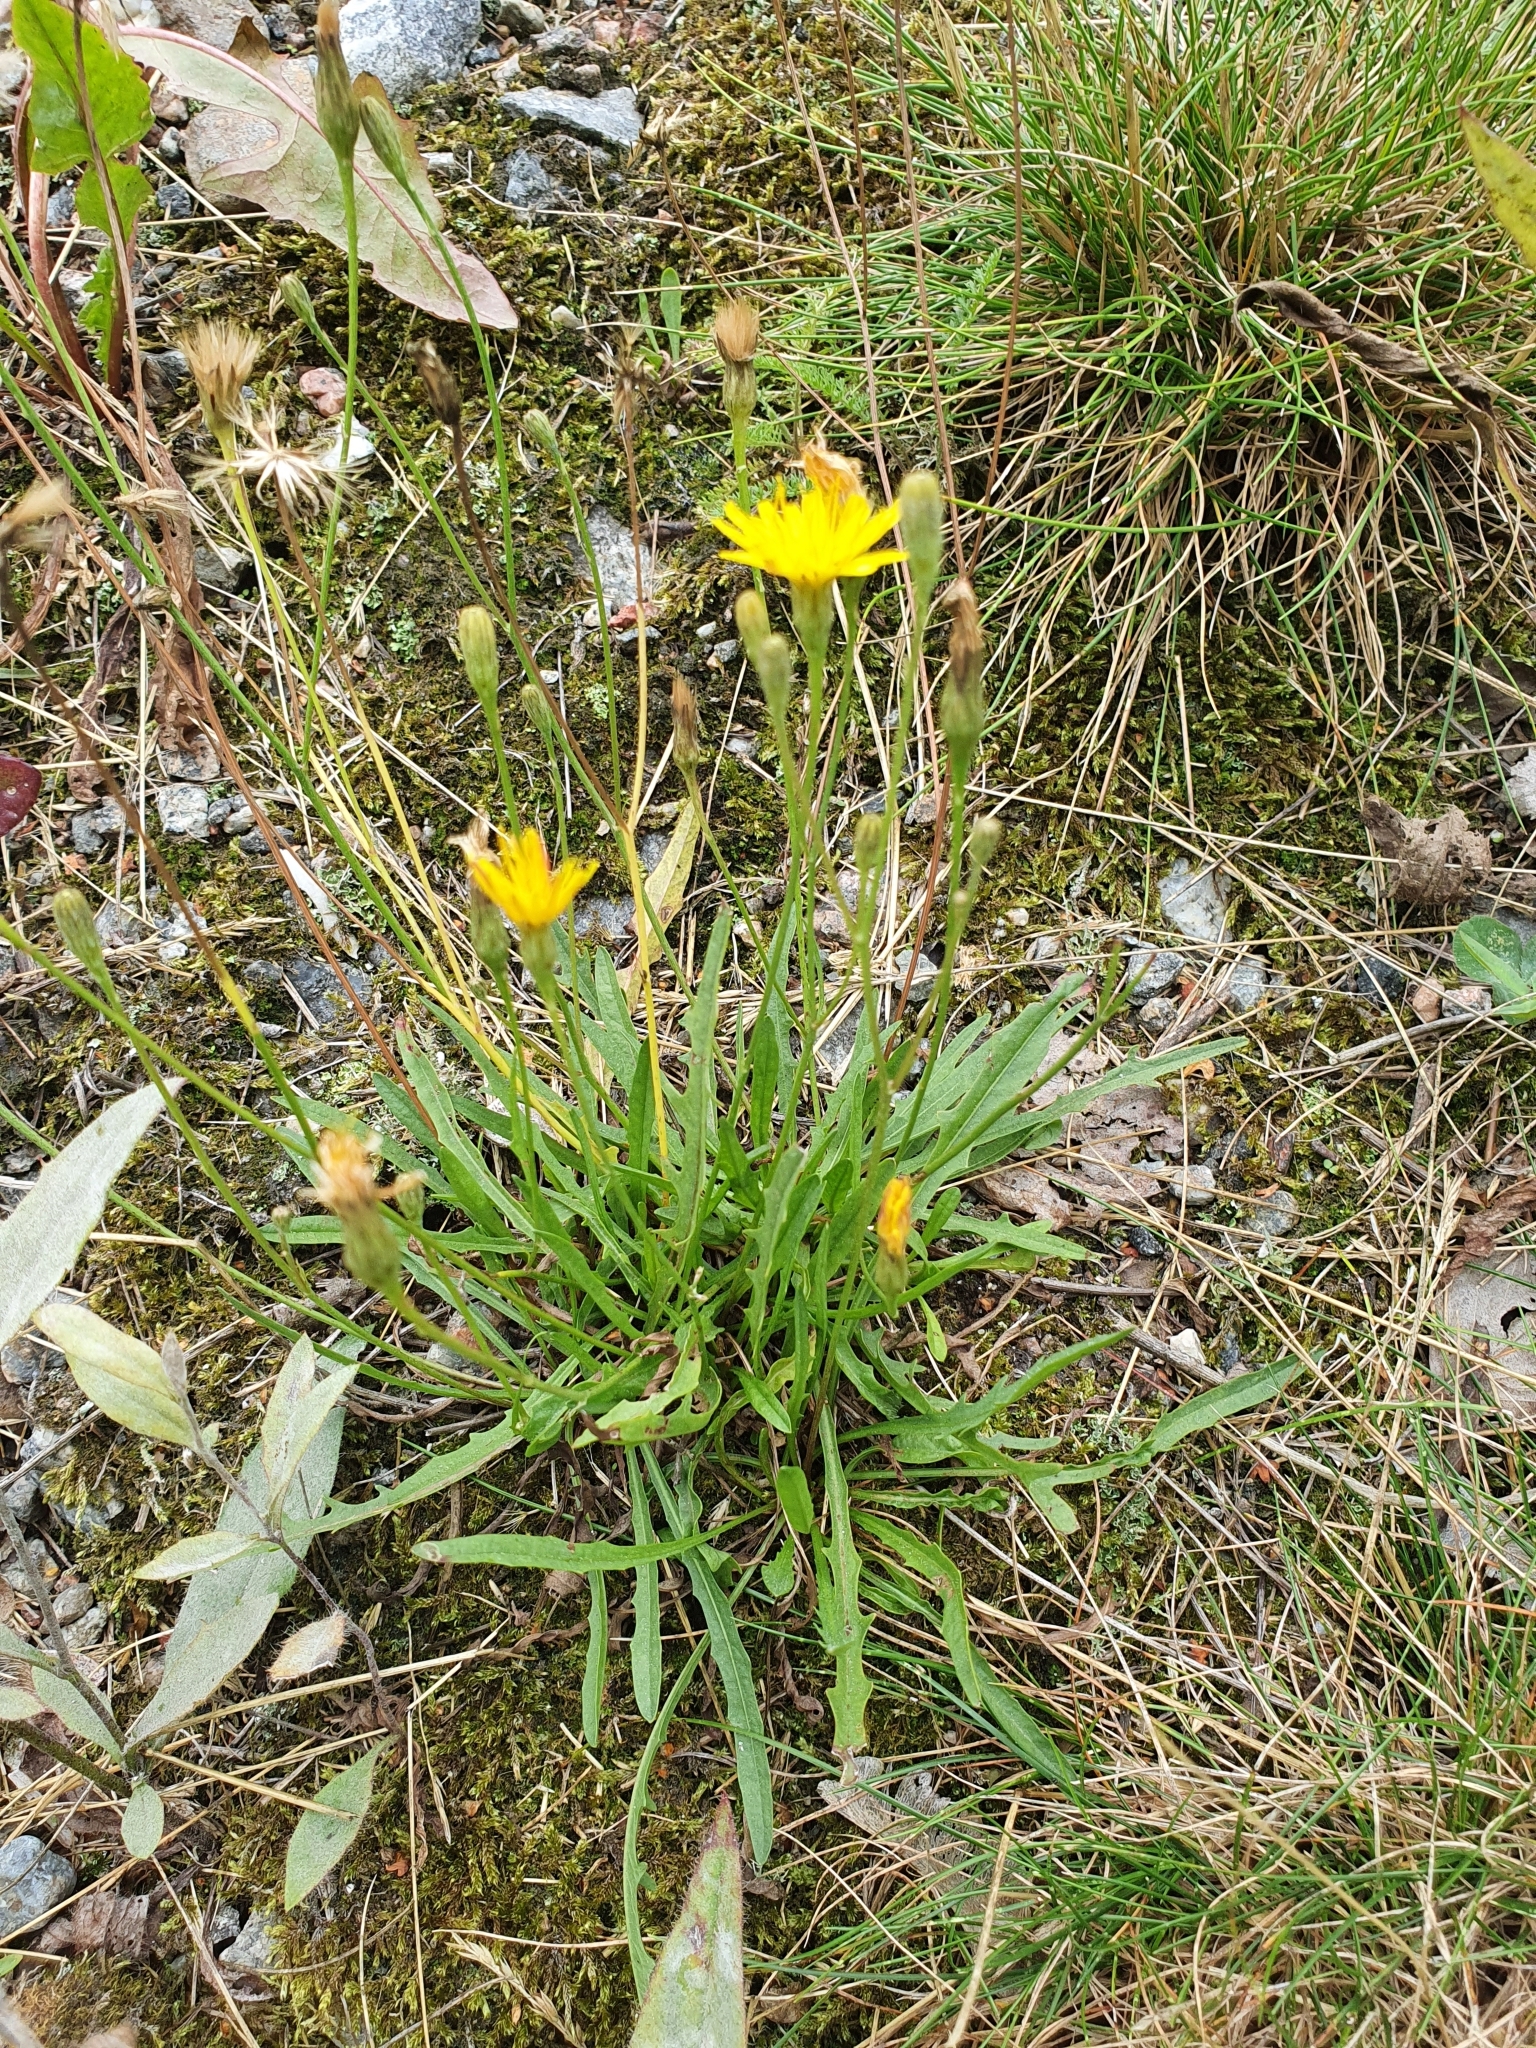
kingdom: Plantae
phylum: Tracheophyta
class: Magnoliopsida
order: Asterales
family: Asteraceae
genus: Scorzoneroides
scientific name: Scorzoneroides autumnalis
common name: Autumn hawkbit
